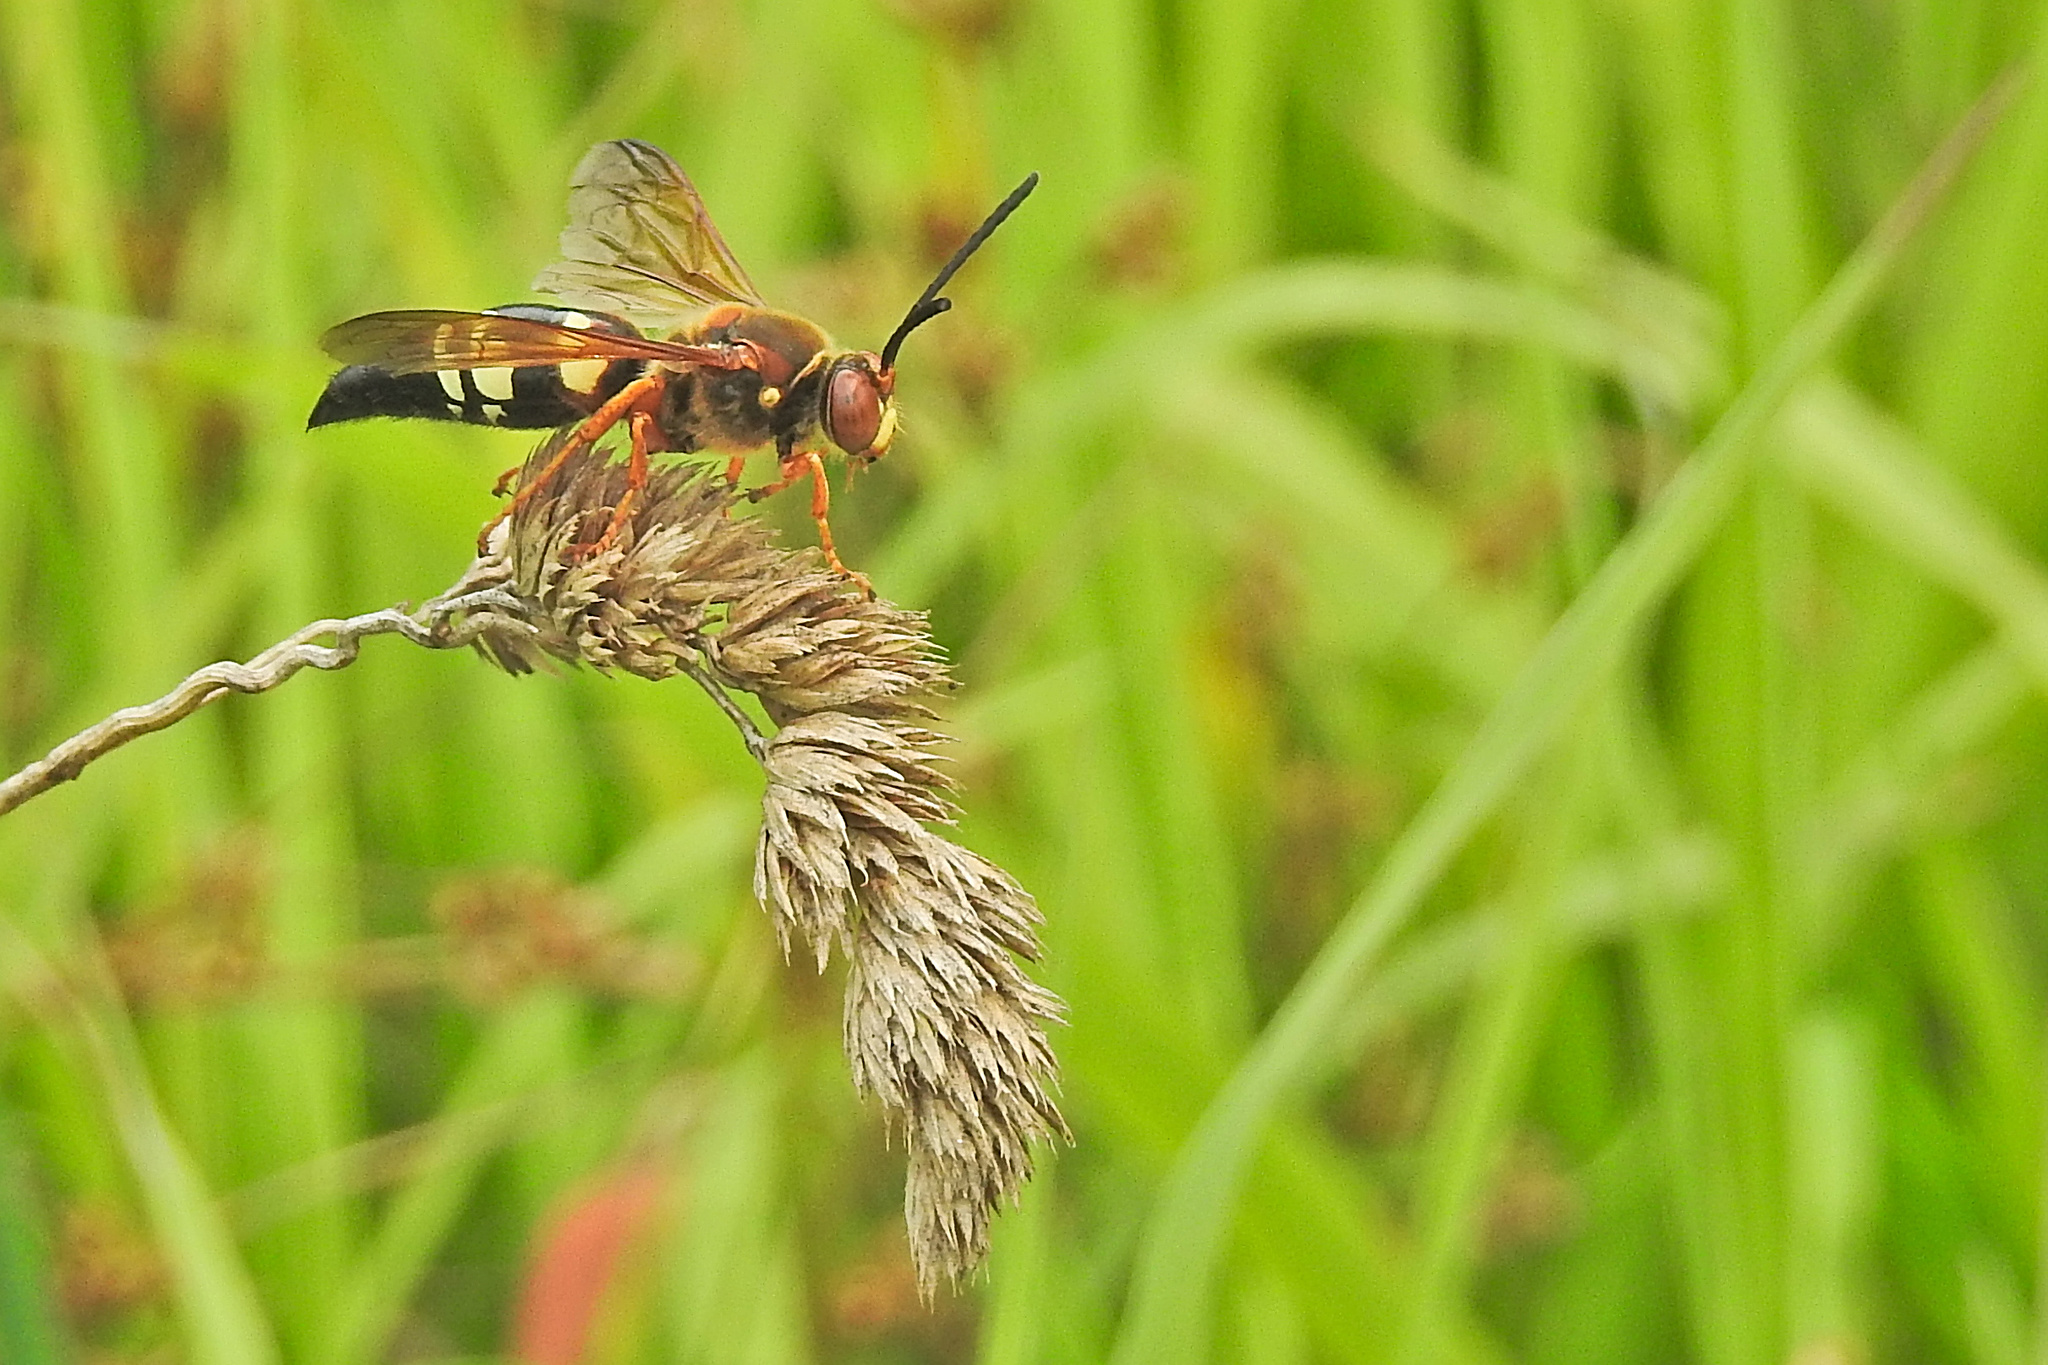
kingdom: Animalia
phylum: Arthropoda
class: Insecta
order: Hymenoptera
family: Crabronidae
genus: Sphecius
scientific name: Sphecius speciosus
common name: Cicada killer
